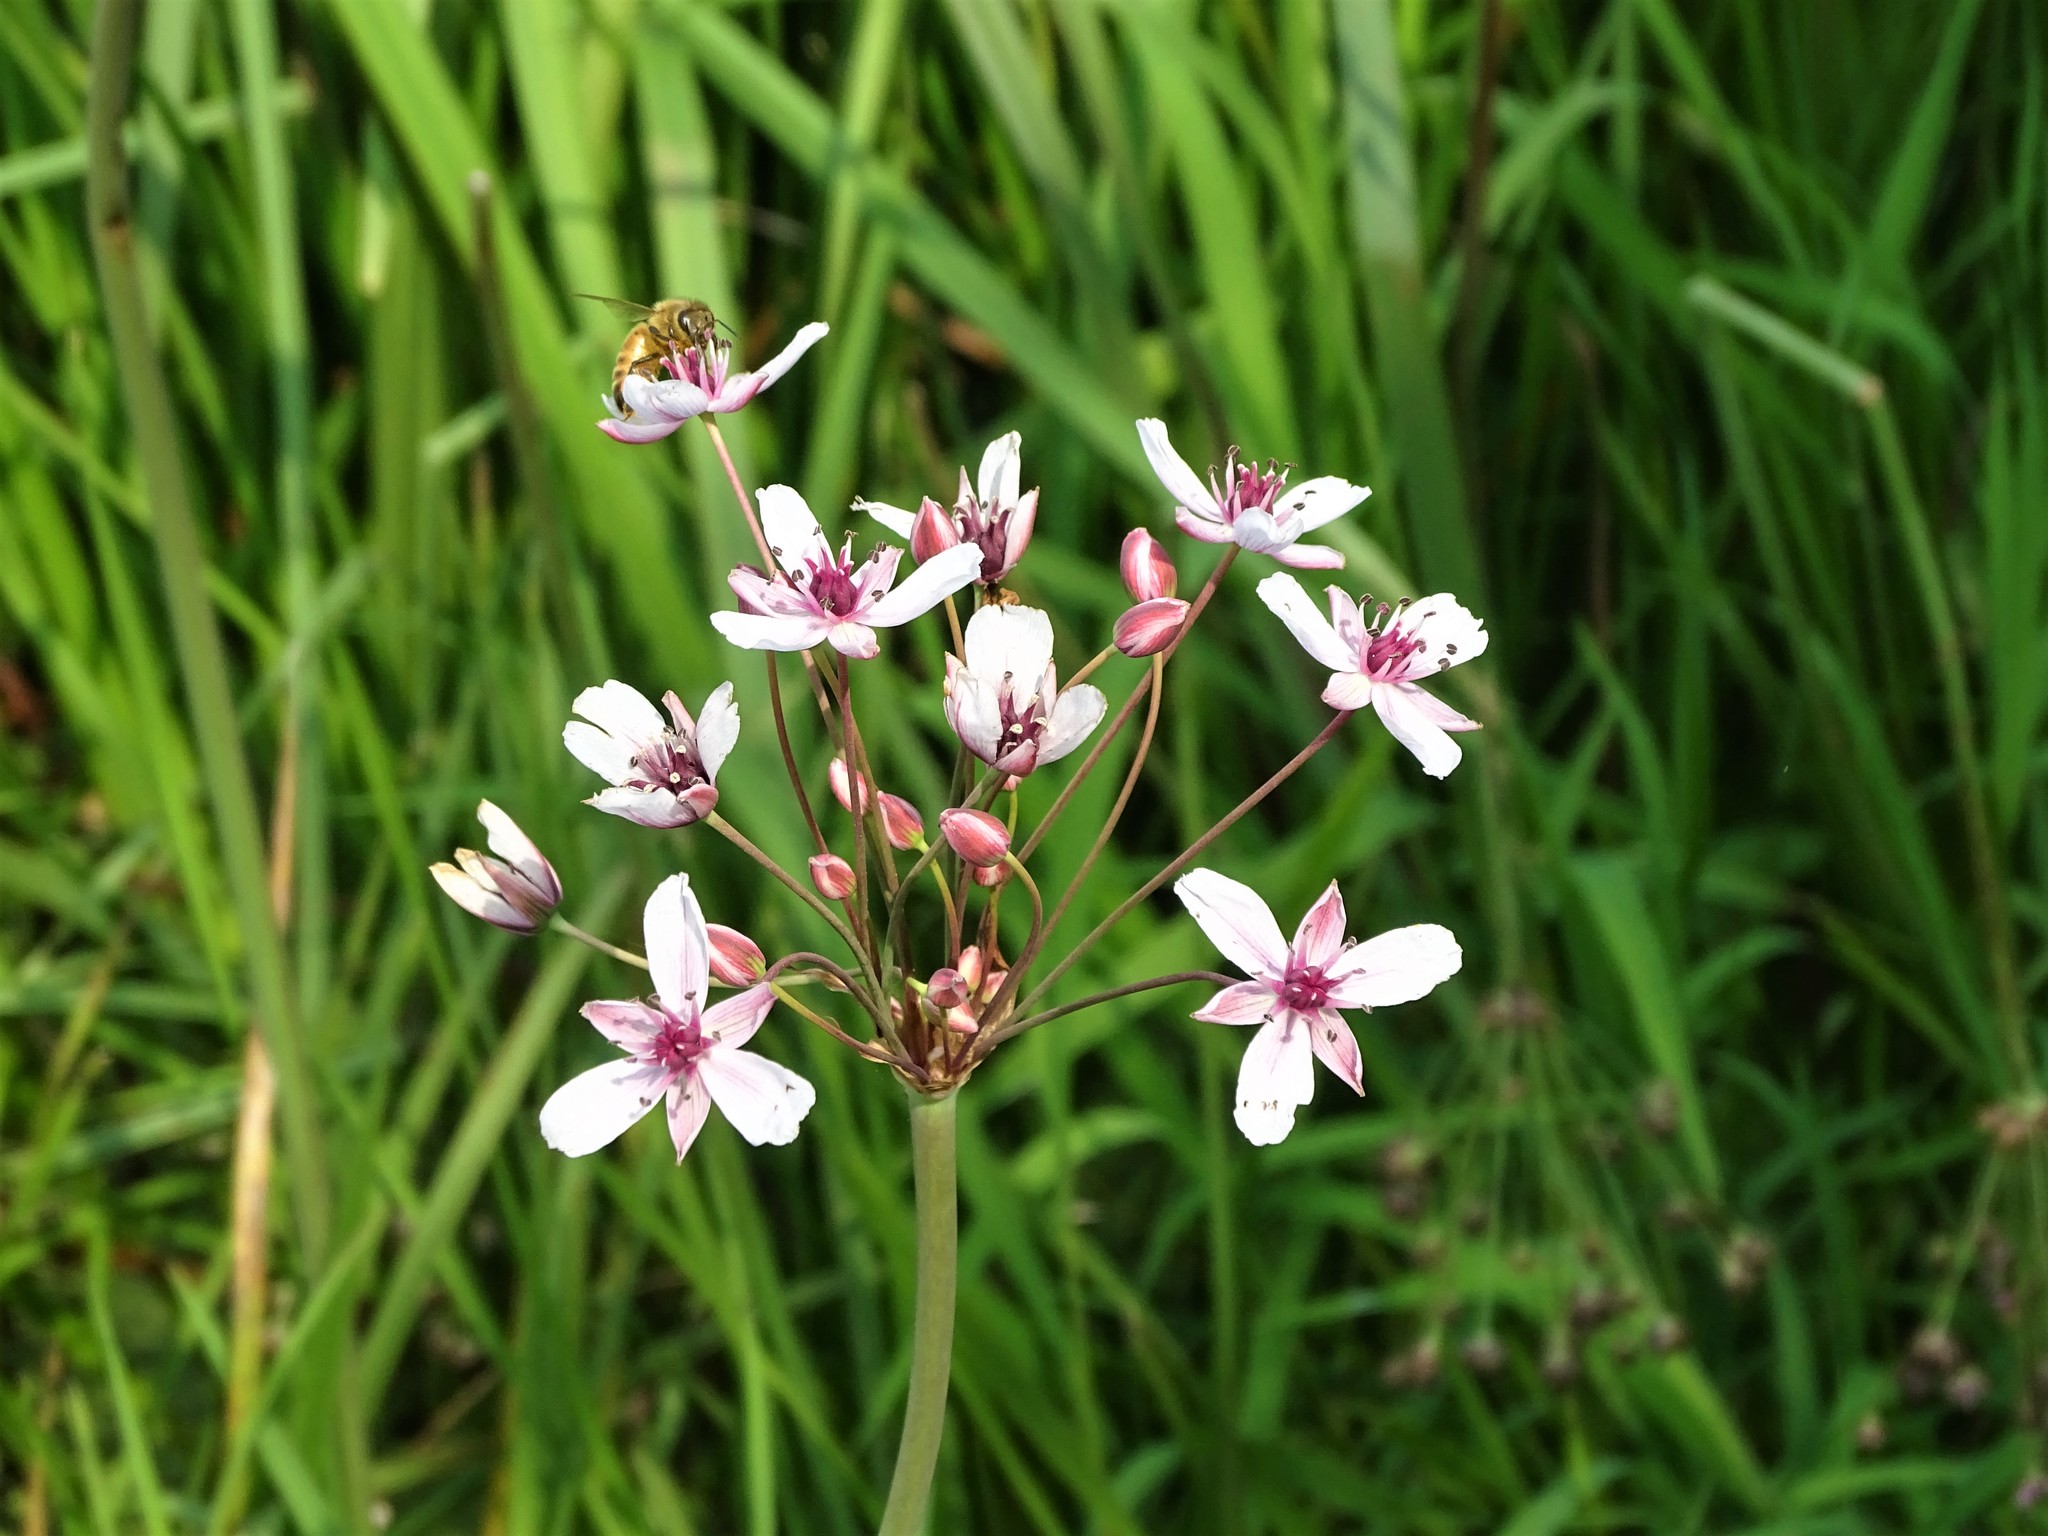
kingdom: Plantae
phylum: Tracheophyta
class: Liliopsida
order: Alismatales
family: Butomaceae
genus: Butomus
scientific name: Butomus umbellatus
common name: Flowering-rush
